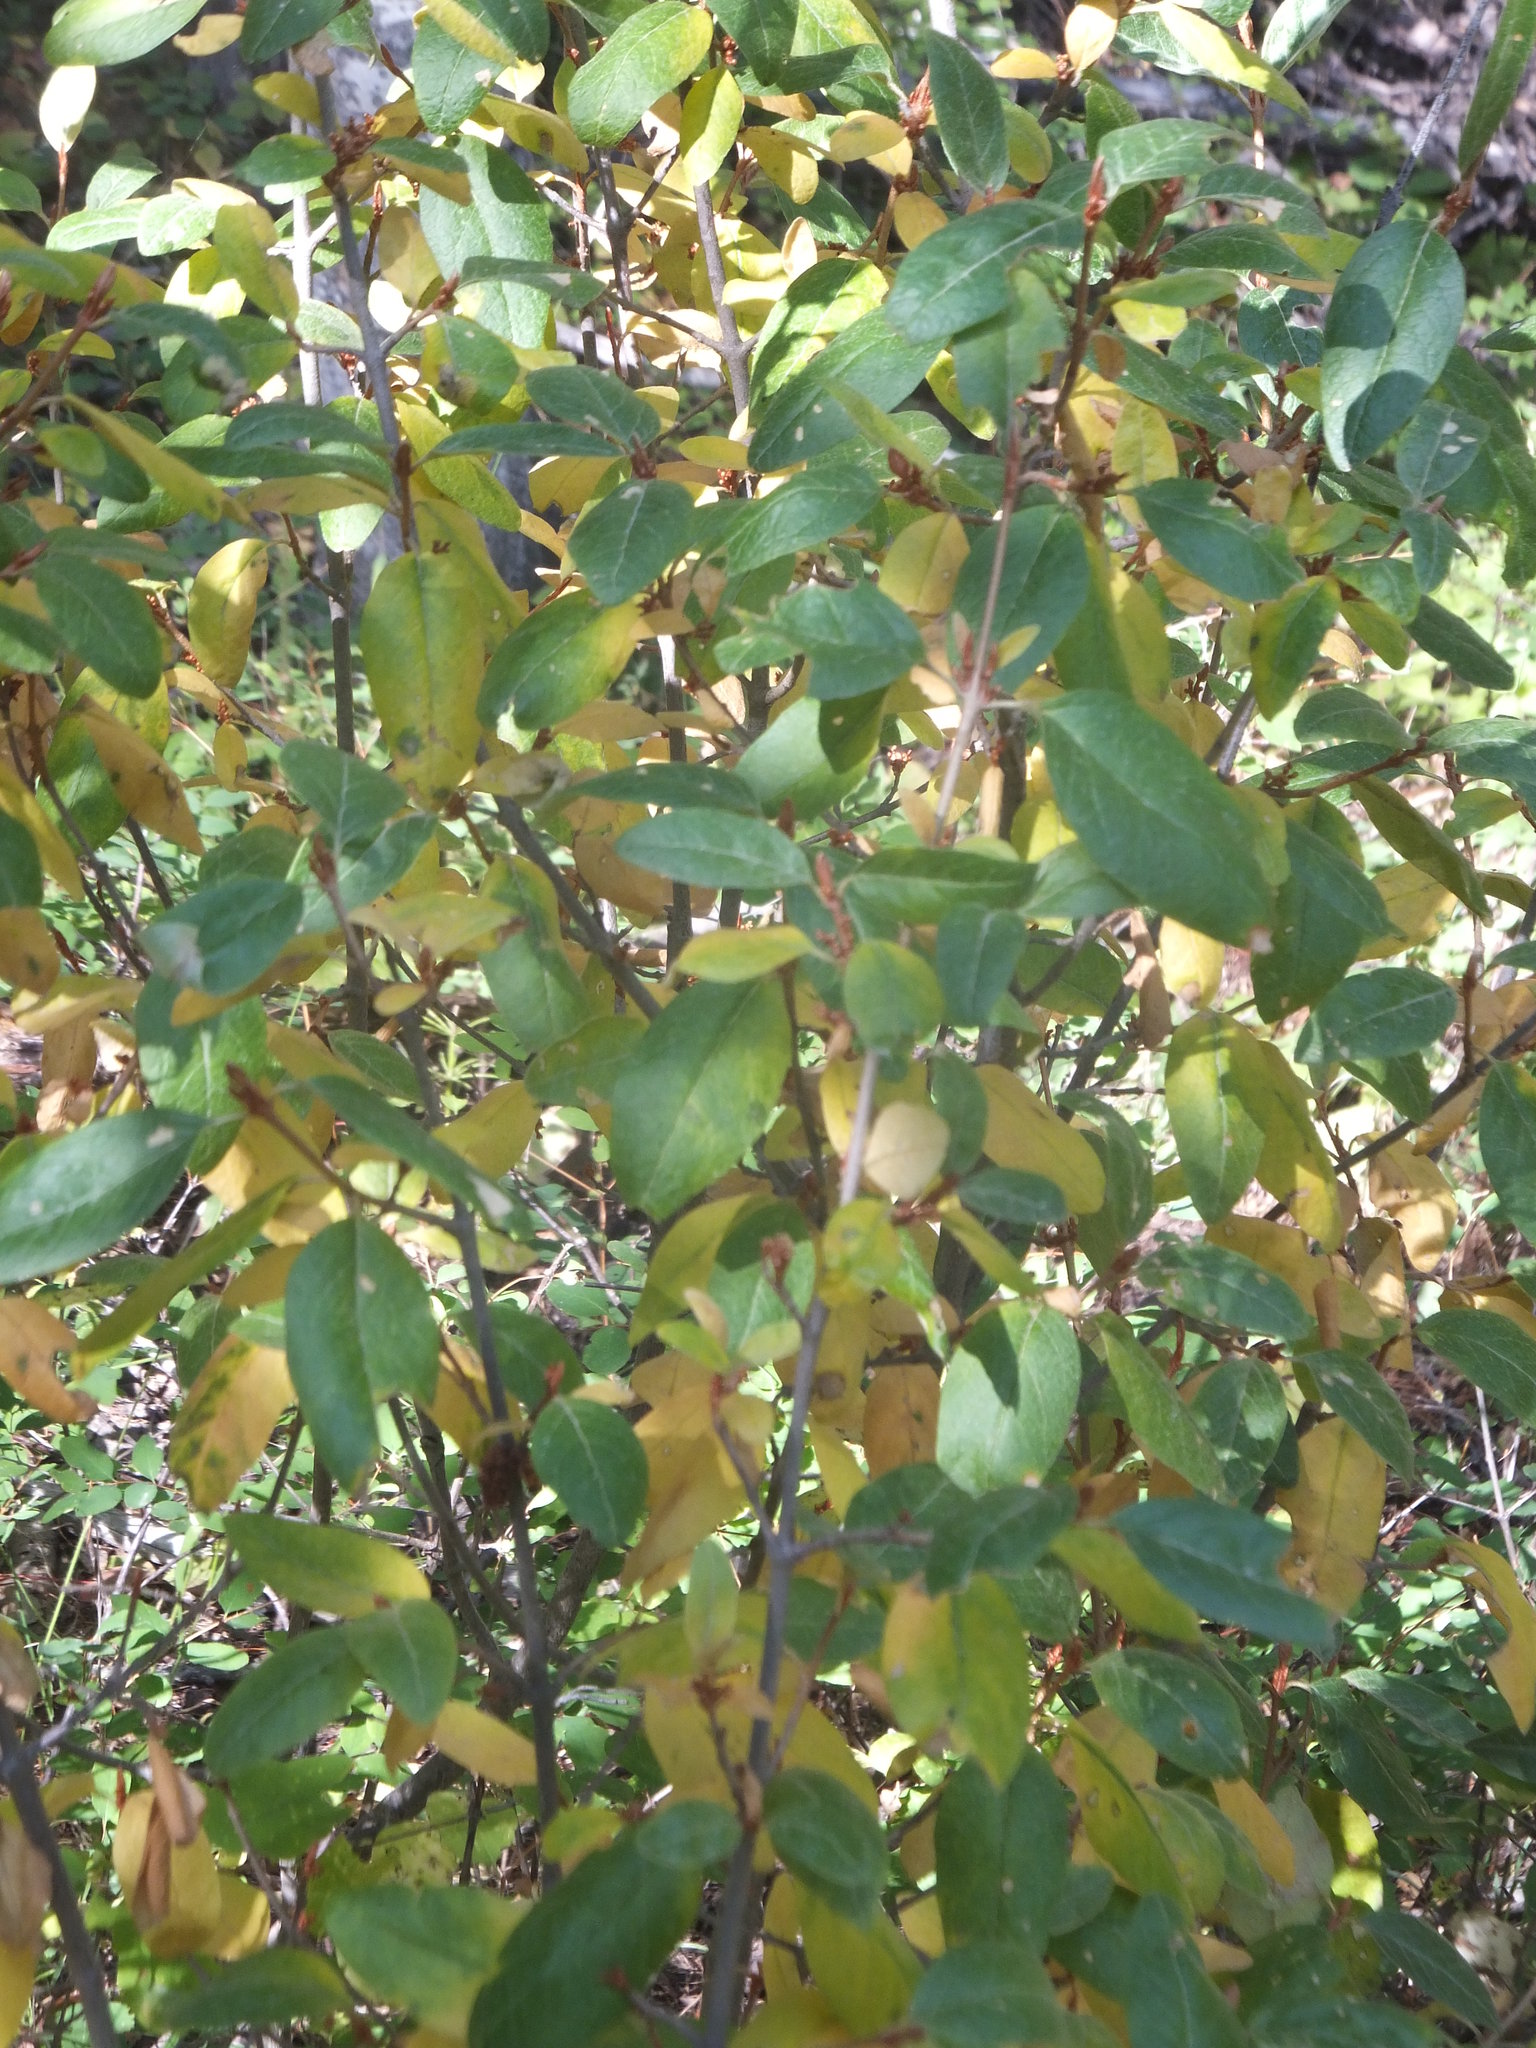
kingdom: Plantae
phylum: Tracheophyta
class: Magnoliopsida
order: Rosales
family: Elaeagnaceae
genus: Shepherdia
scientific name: Shepherdia canadensis
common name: Soapberry
